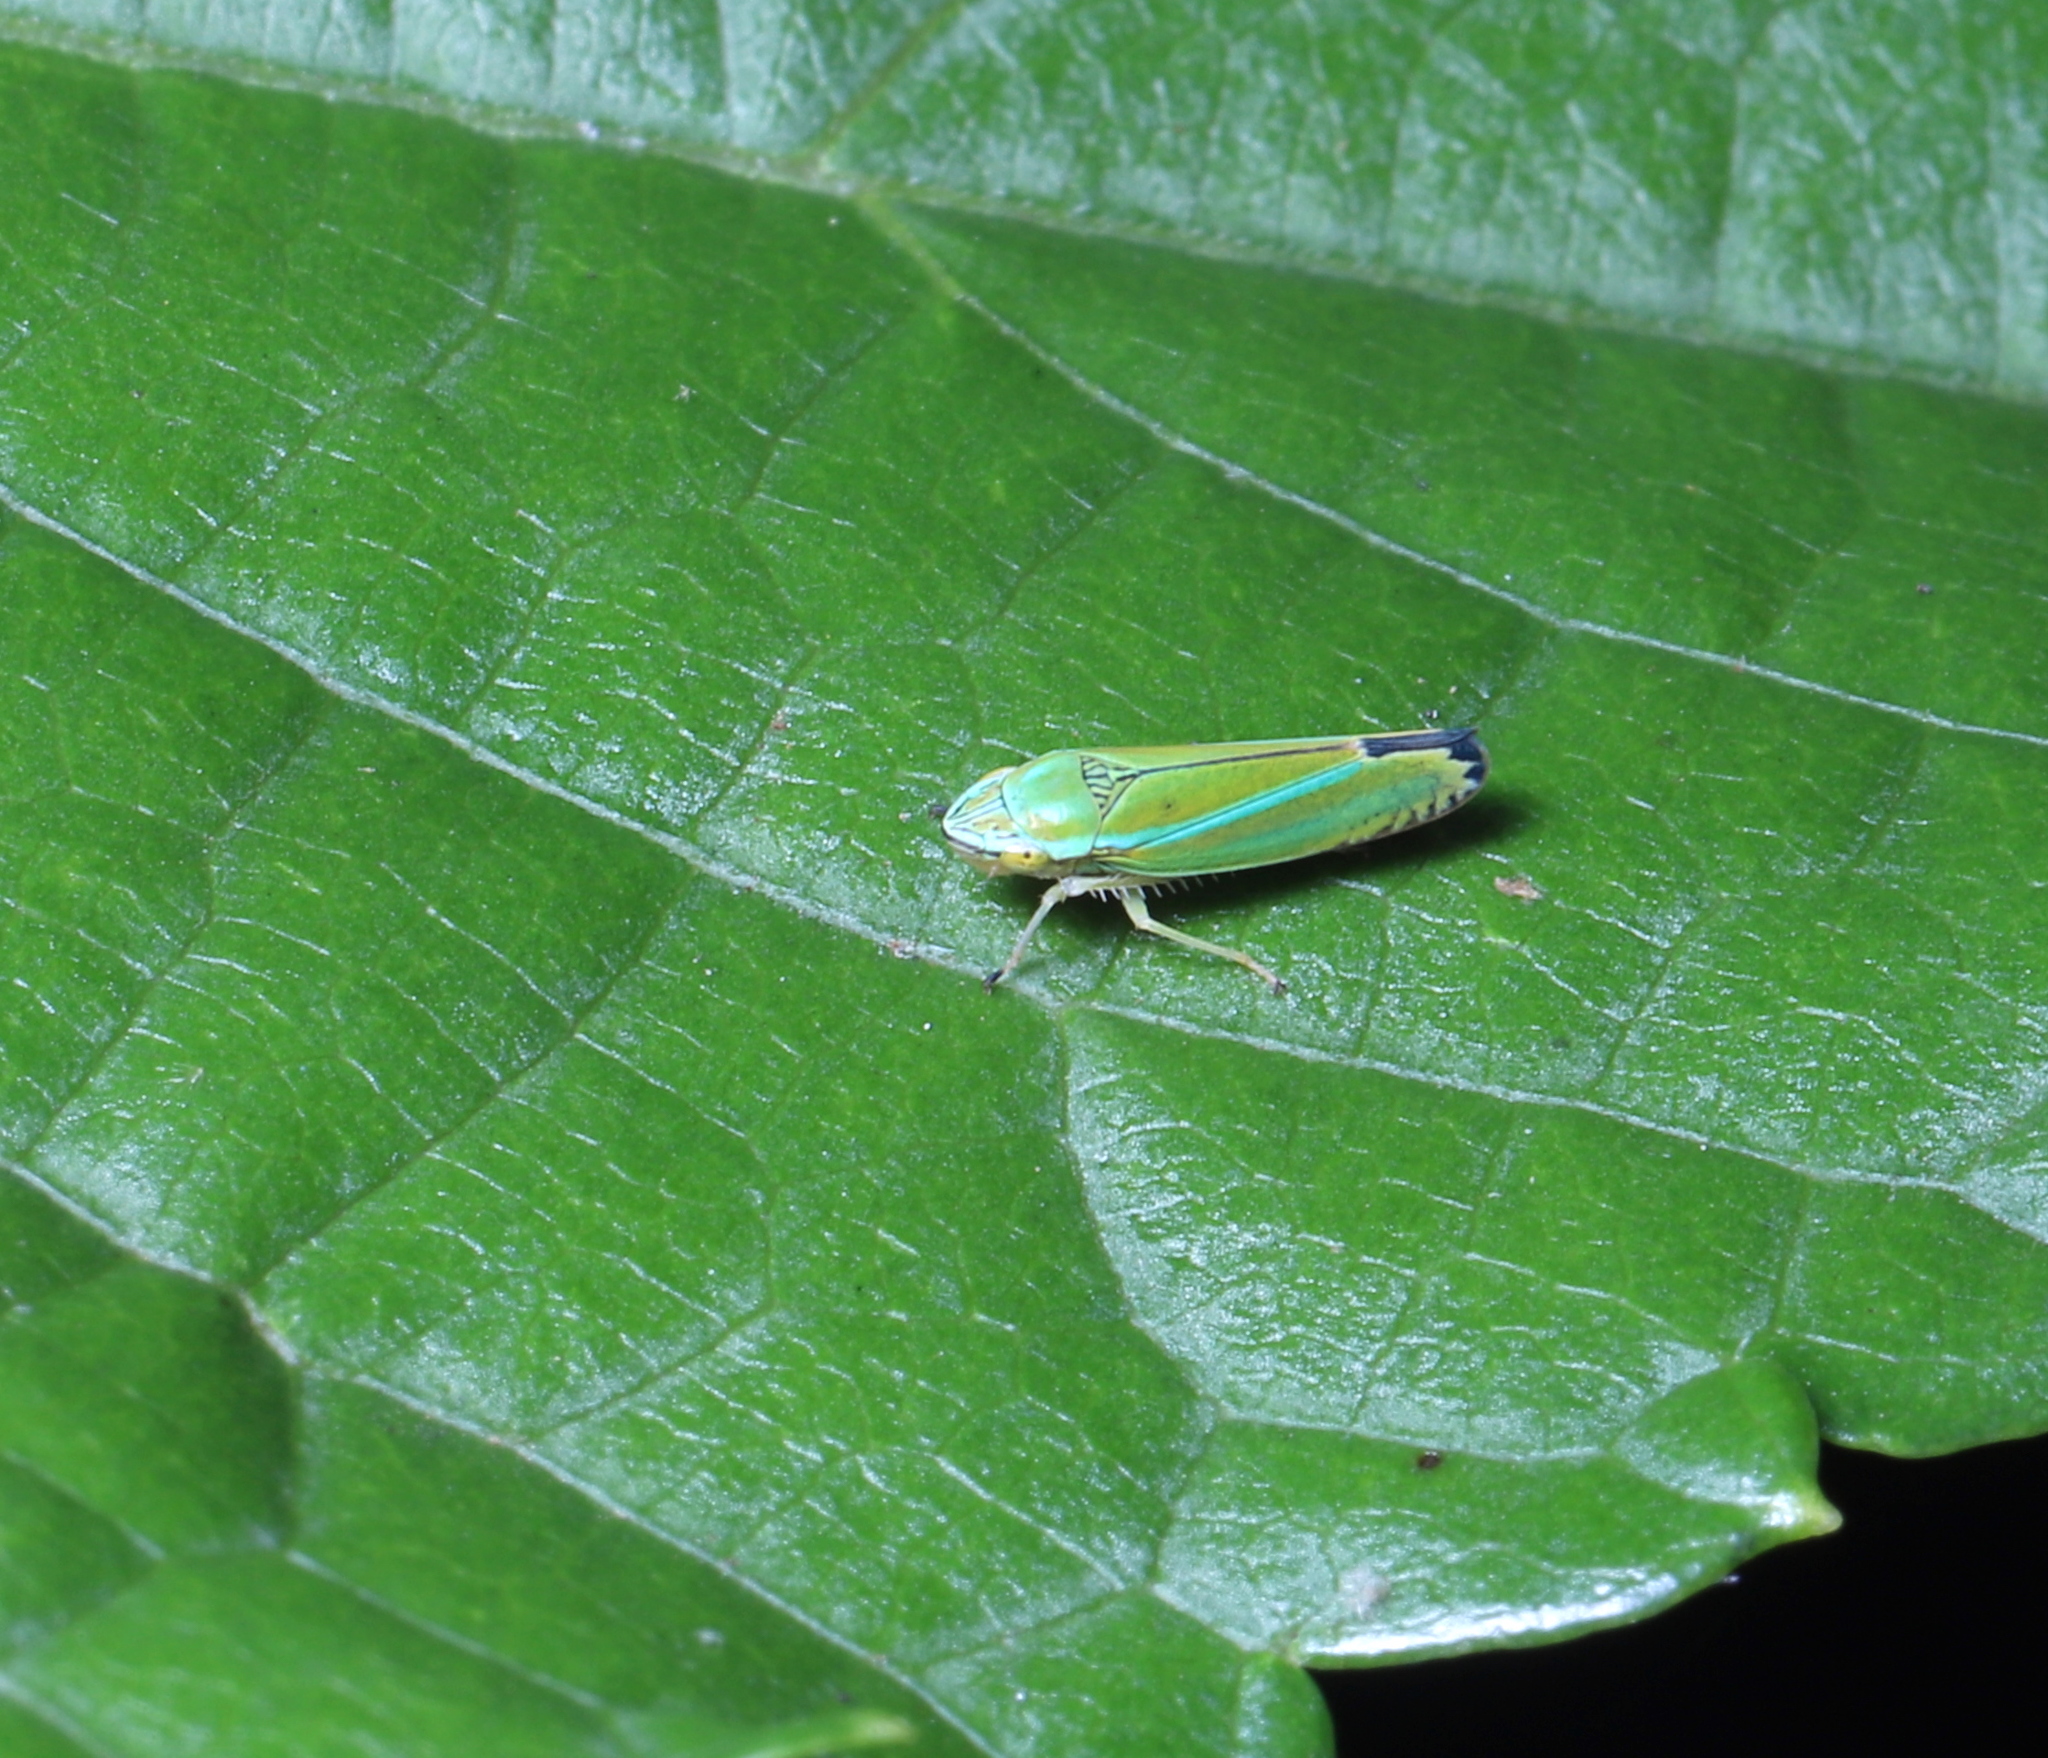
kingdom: Animalia
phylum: Arthropoda
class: Insecta
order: Hemiptera
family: Cicadellidae
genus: Graphocephala
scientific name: Graphocephala versuta
